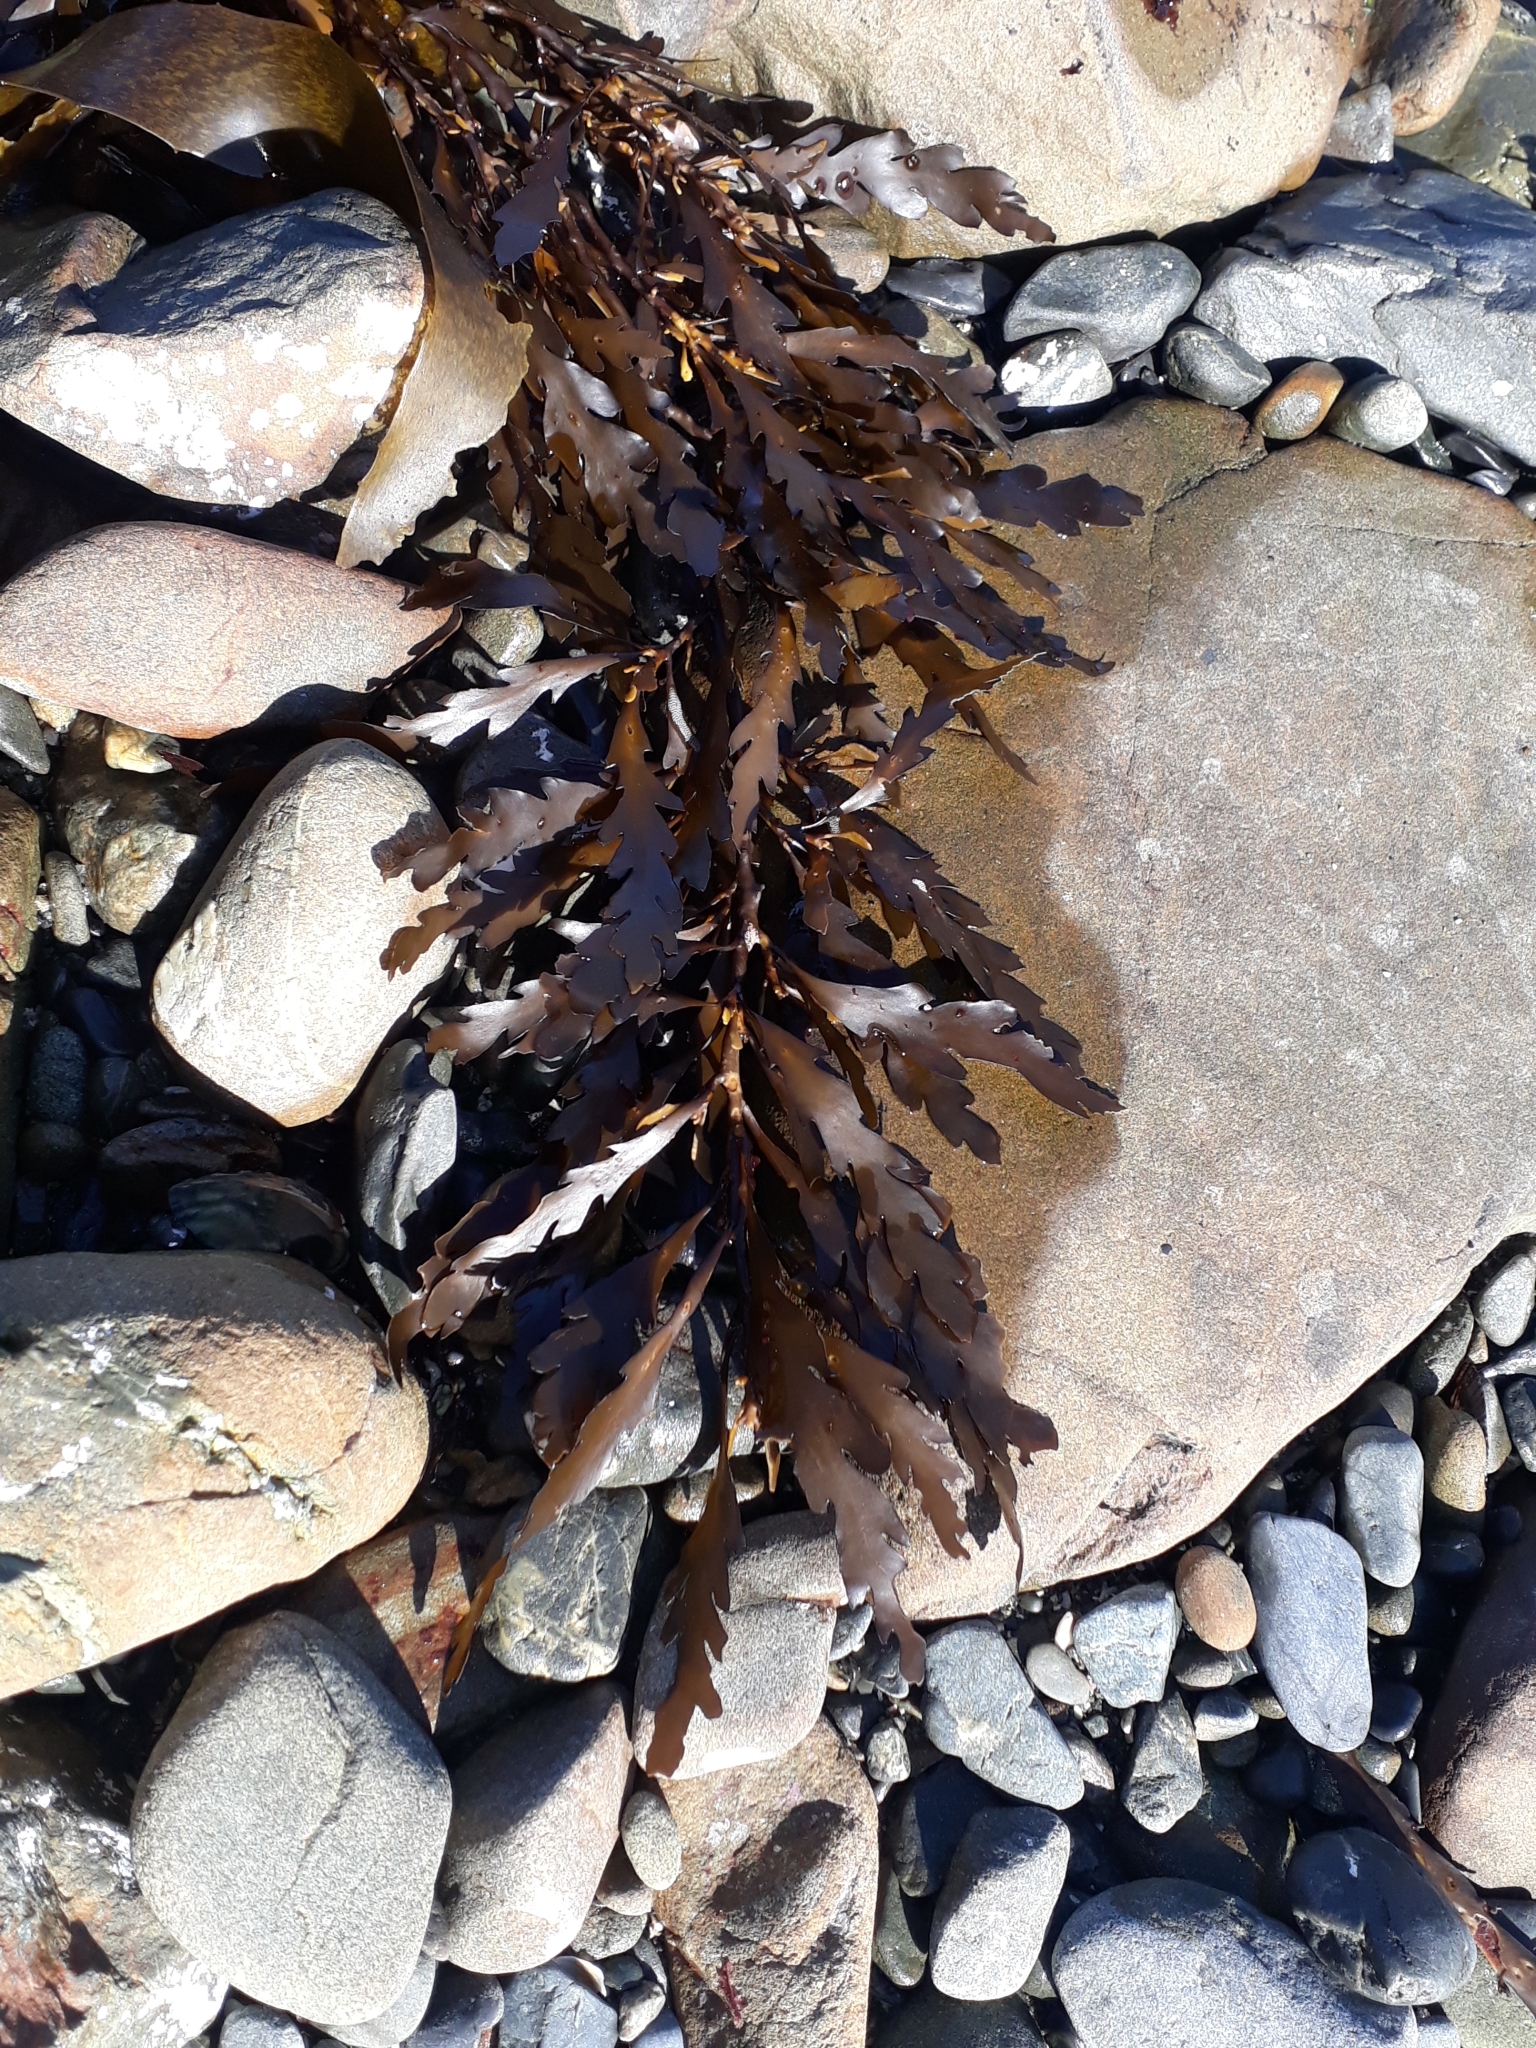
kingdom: Chromista
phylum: Ochrophyta
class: Phaeophyceae
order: Fucales
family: Sargassaceae
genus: Landsburgia
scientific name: Landsburgia quercifolia
